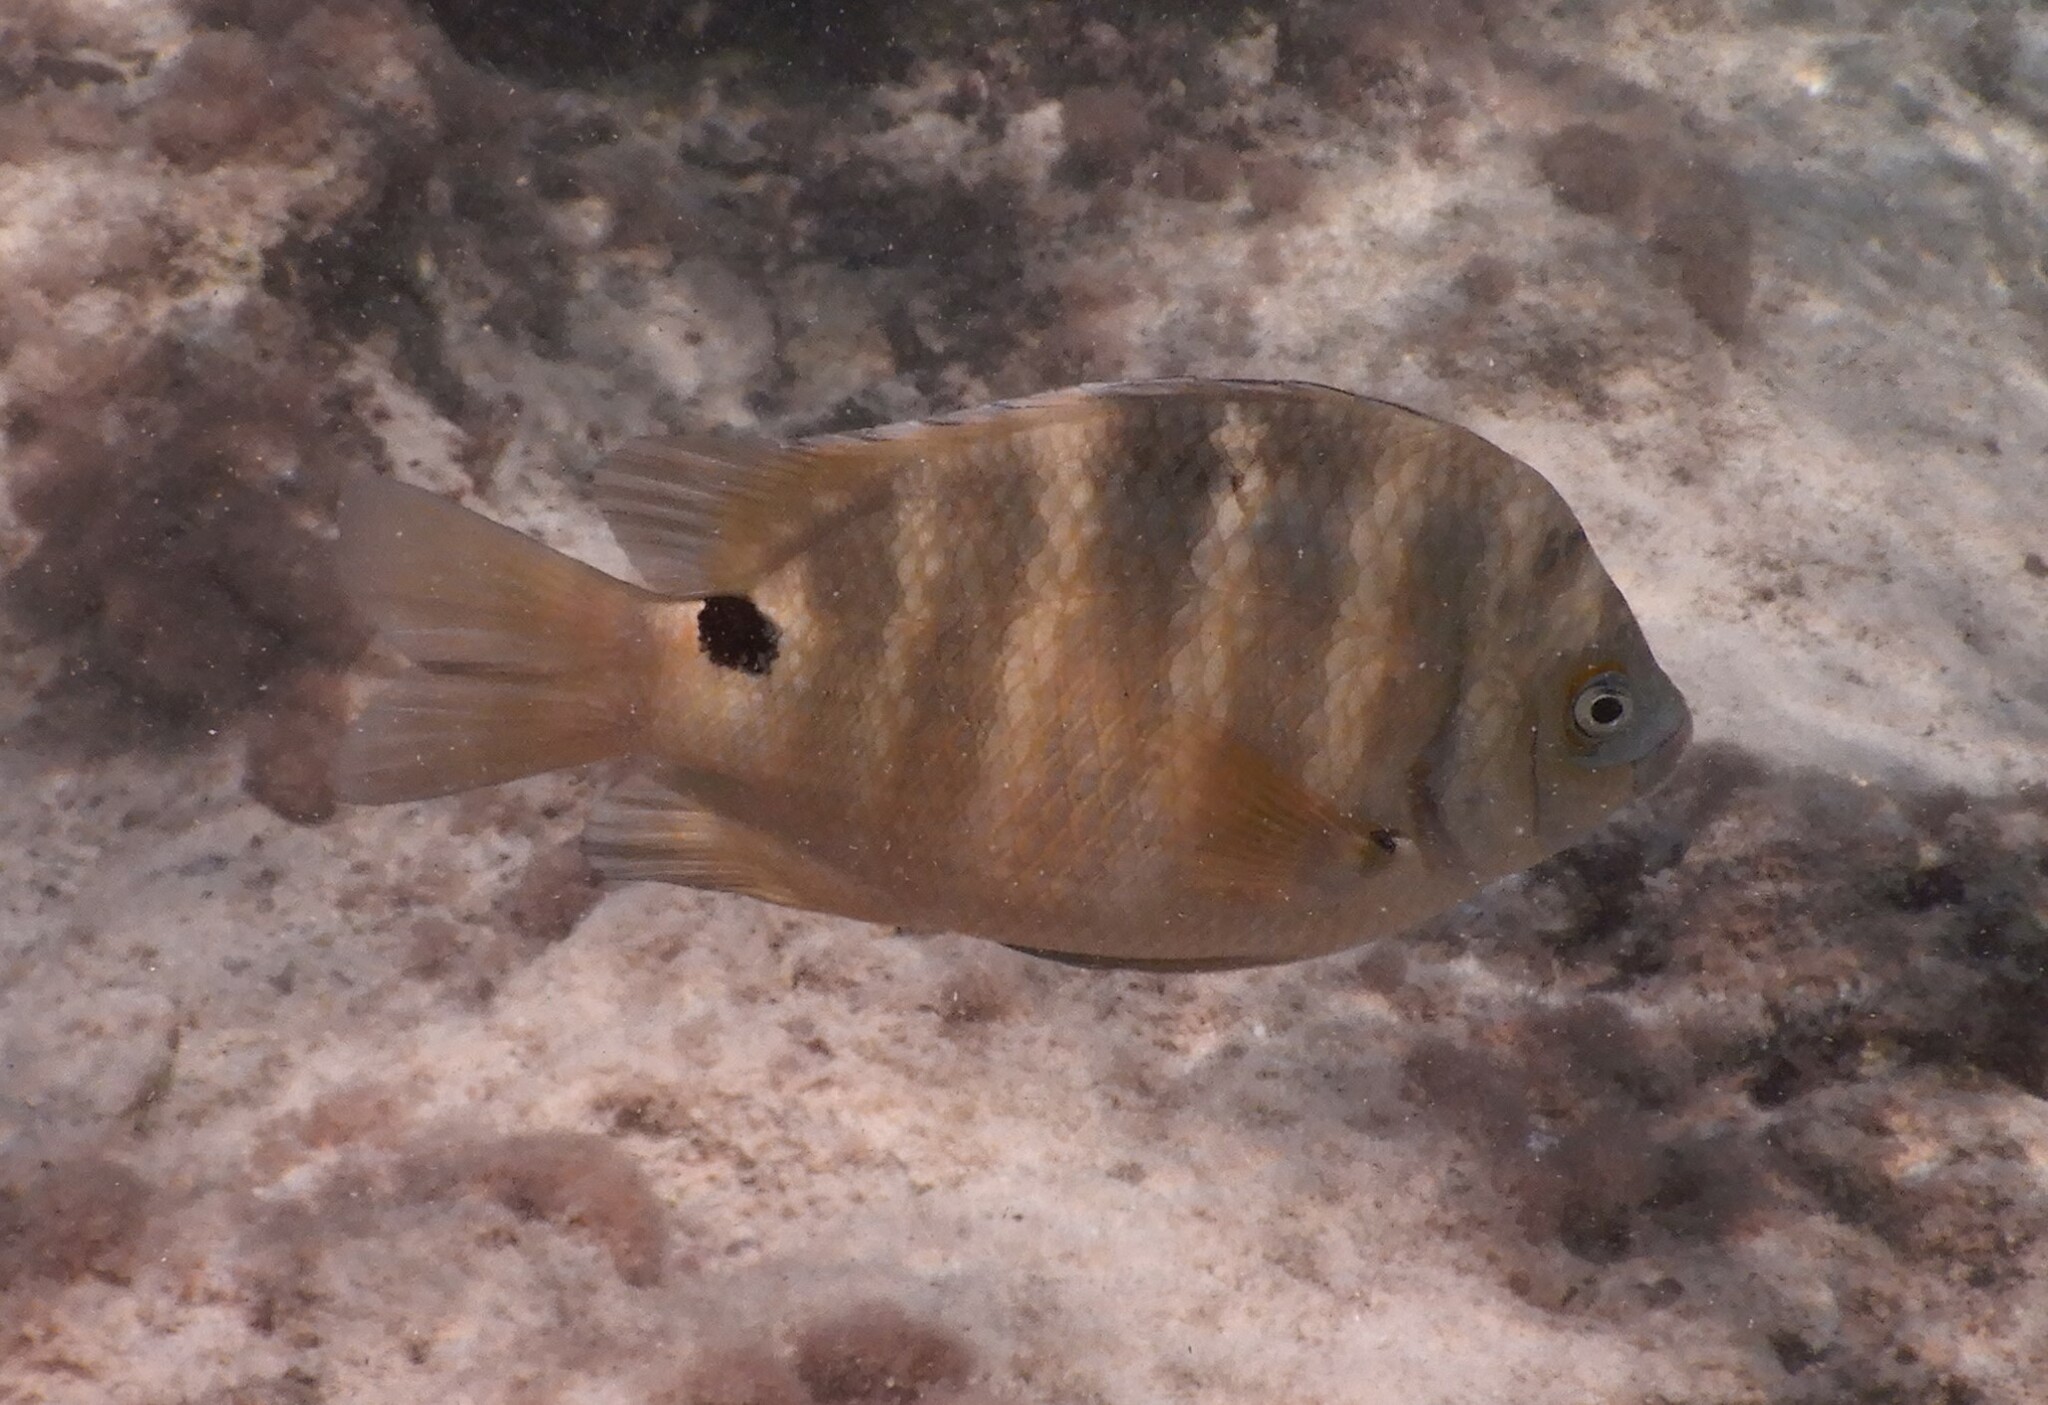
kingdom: Animalia
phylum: Chordata
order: Perciformes
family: Pomacentridae
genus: Abudefduf
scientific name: Abudefduf sordidus
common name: Blackspot sergeant
